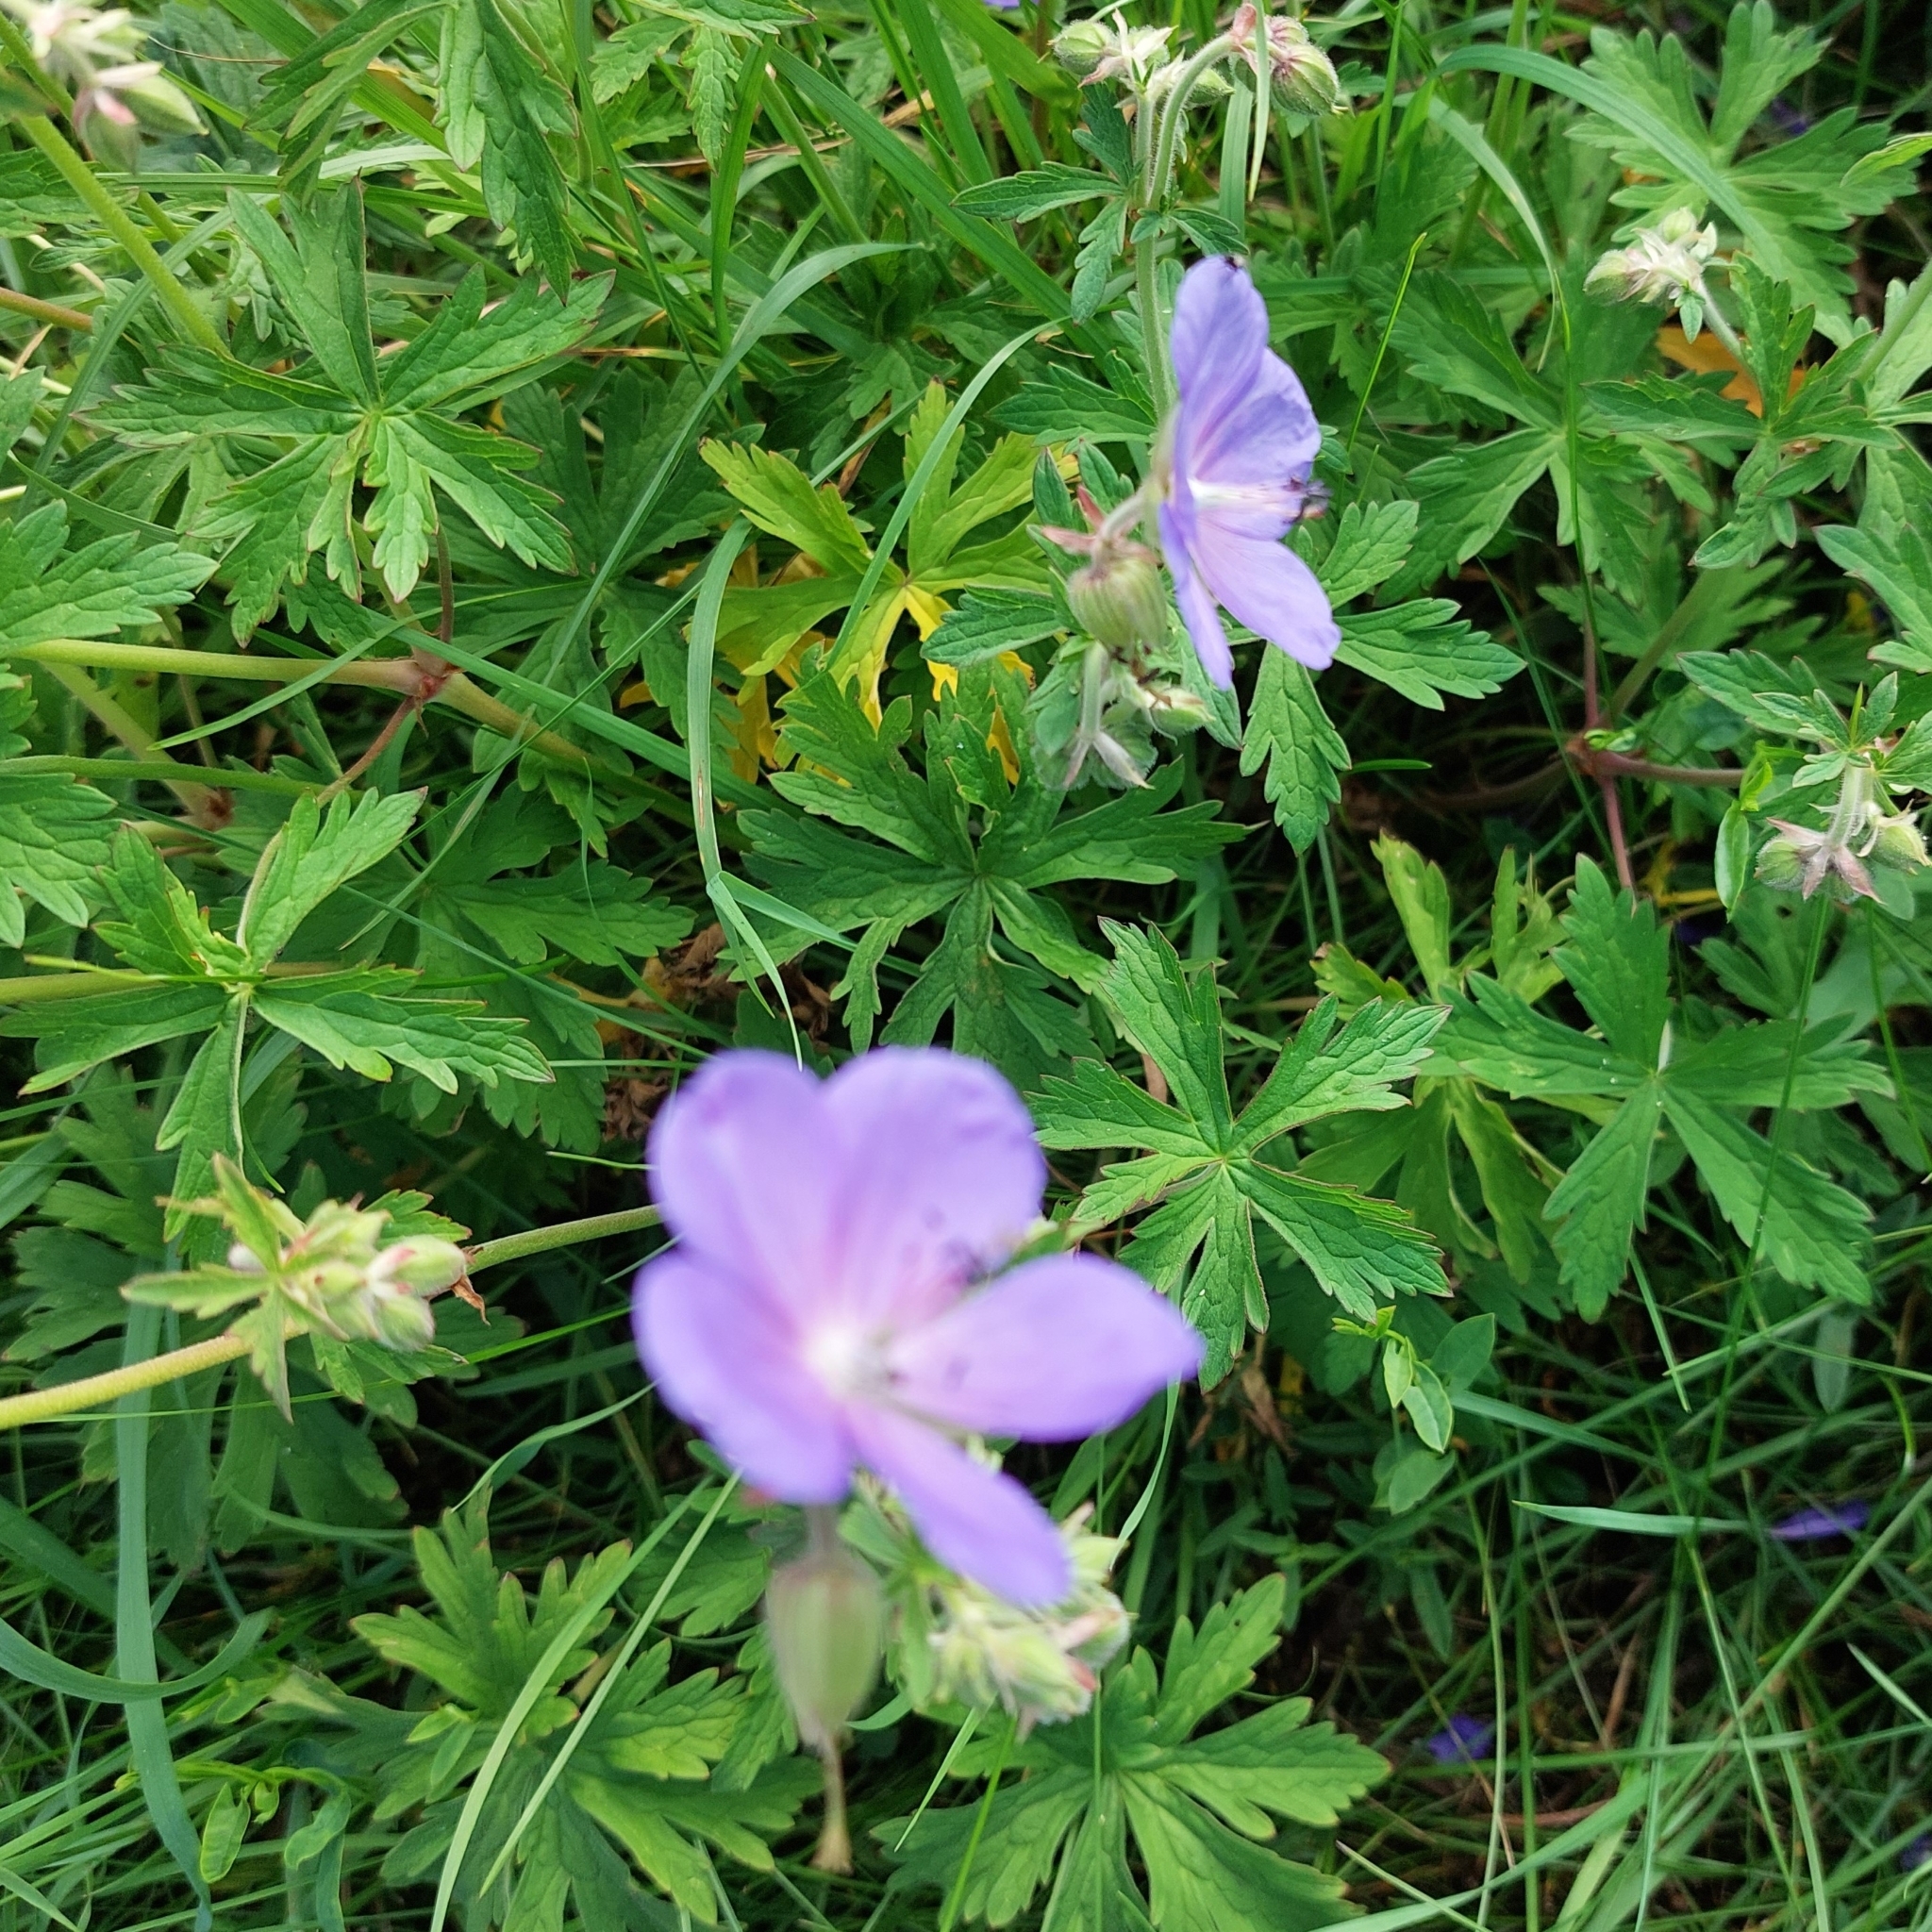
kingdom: Plantae
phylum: Tracheophyta
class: Magnoliopsida
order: Geraniales
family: Geraniaceae
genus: Geranium
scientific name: Geranium pratense
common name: Meadow crane's-bill
